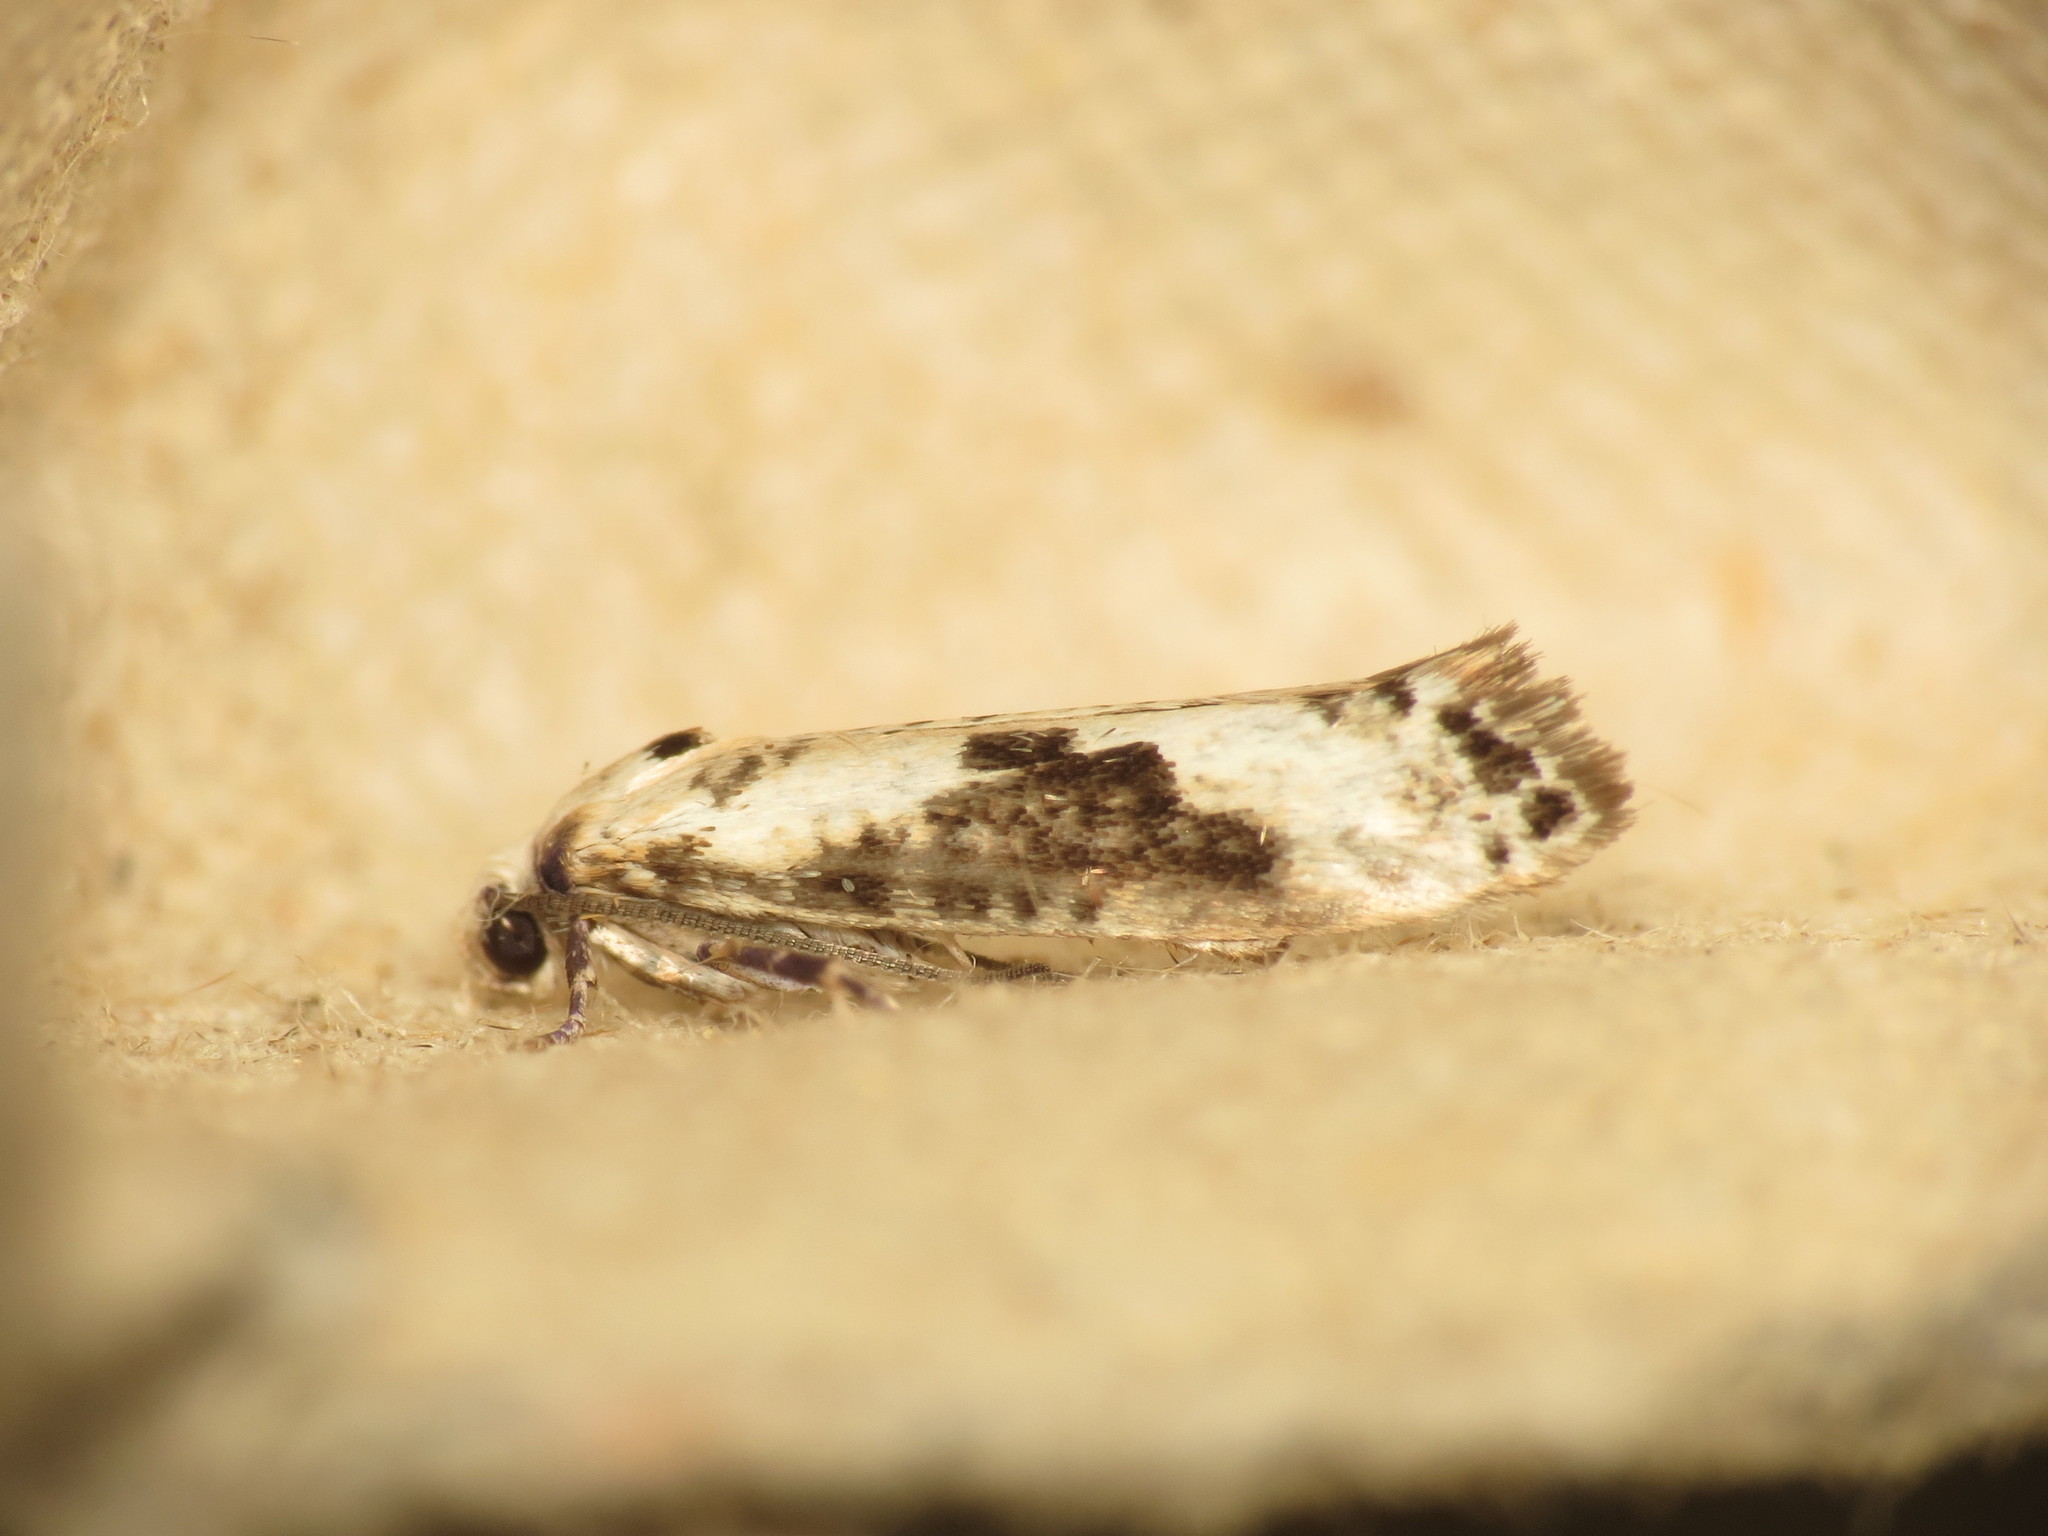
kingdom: Animalia
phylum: Arthropoda
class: Insecta
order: Lepidoptera
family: Praydidae
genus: Prays
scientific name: Prays fraxinella
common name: Ash bud moth
